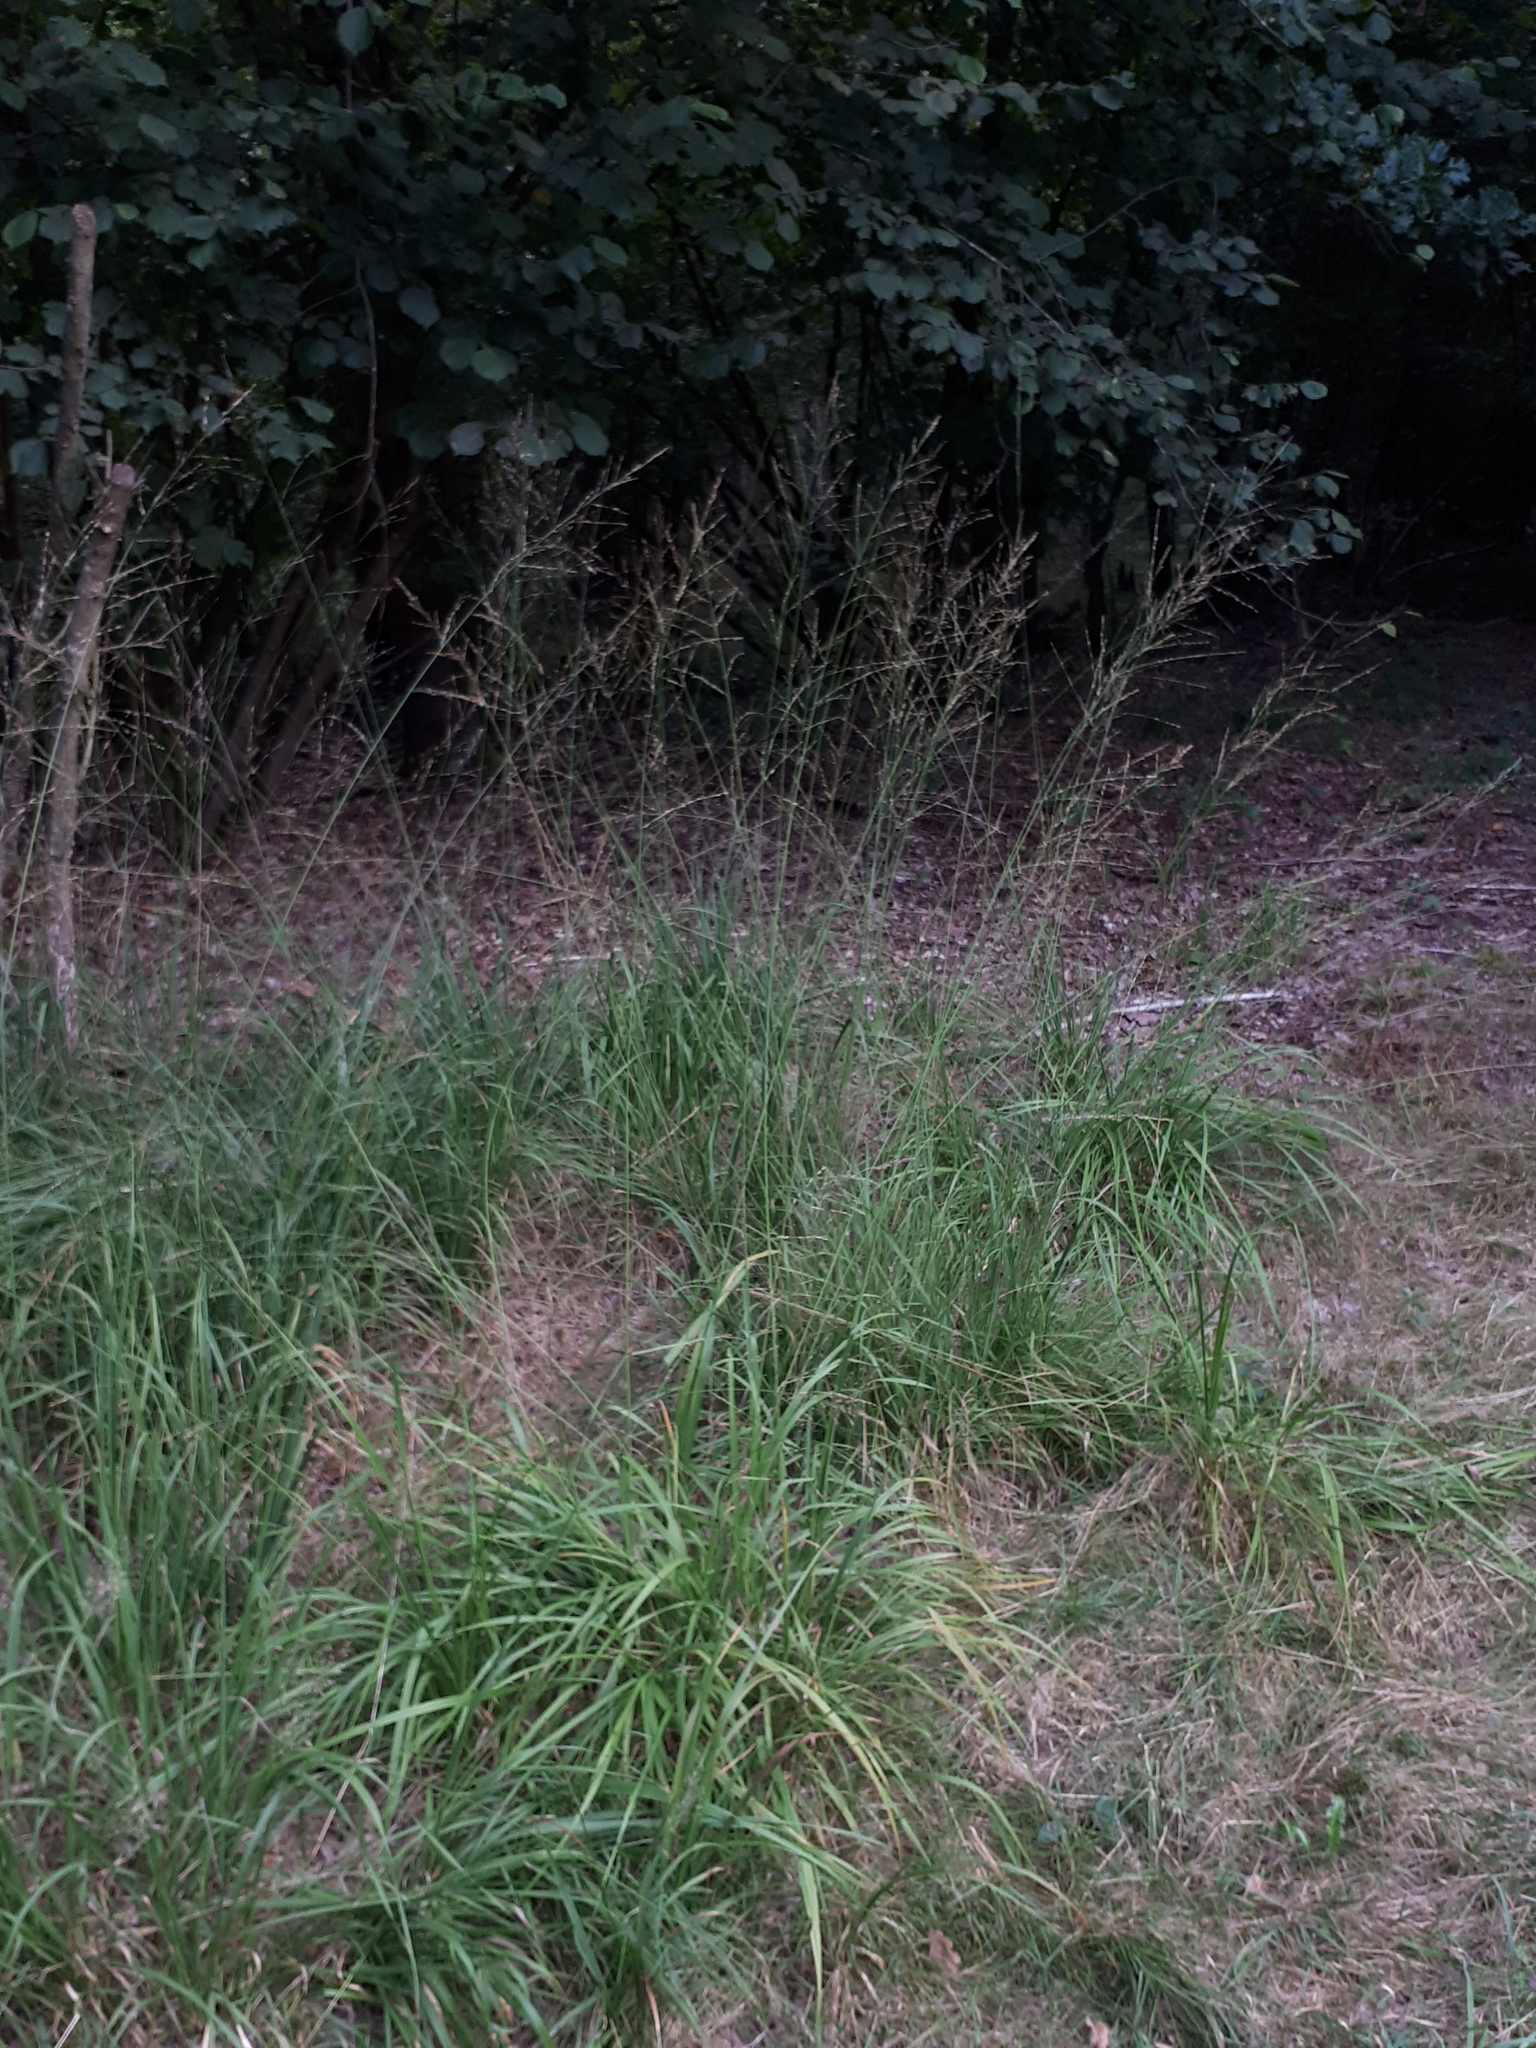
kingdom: Plantae
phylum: Tracheophyta
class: Liliopsida
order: Poales
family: Poaceae
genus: Molinia
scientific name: Molinia arundinacea
